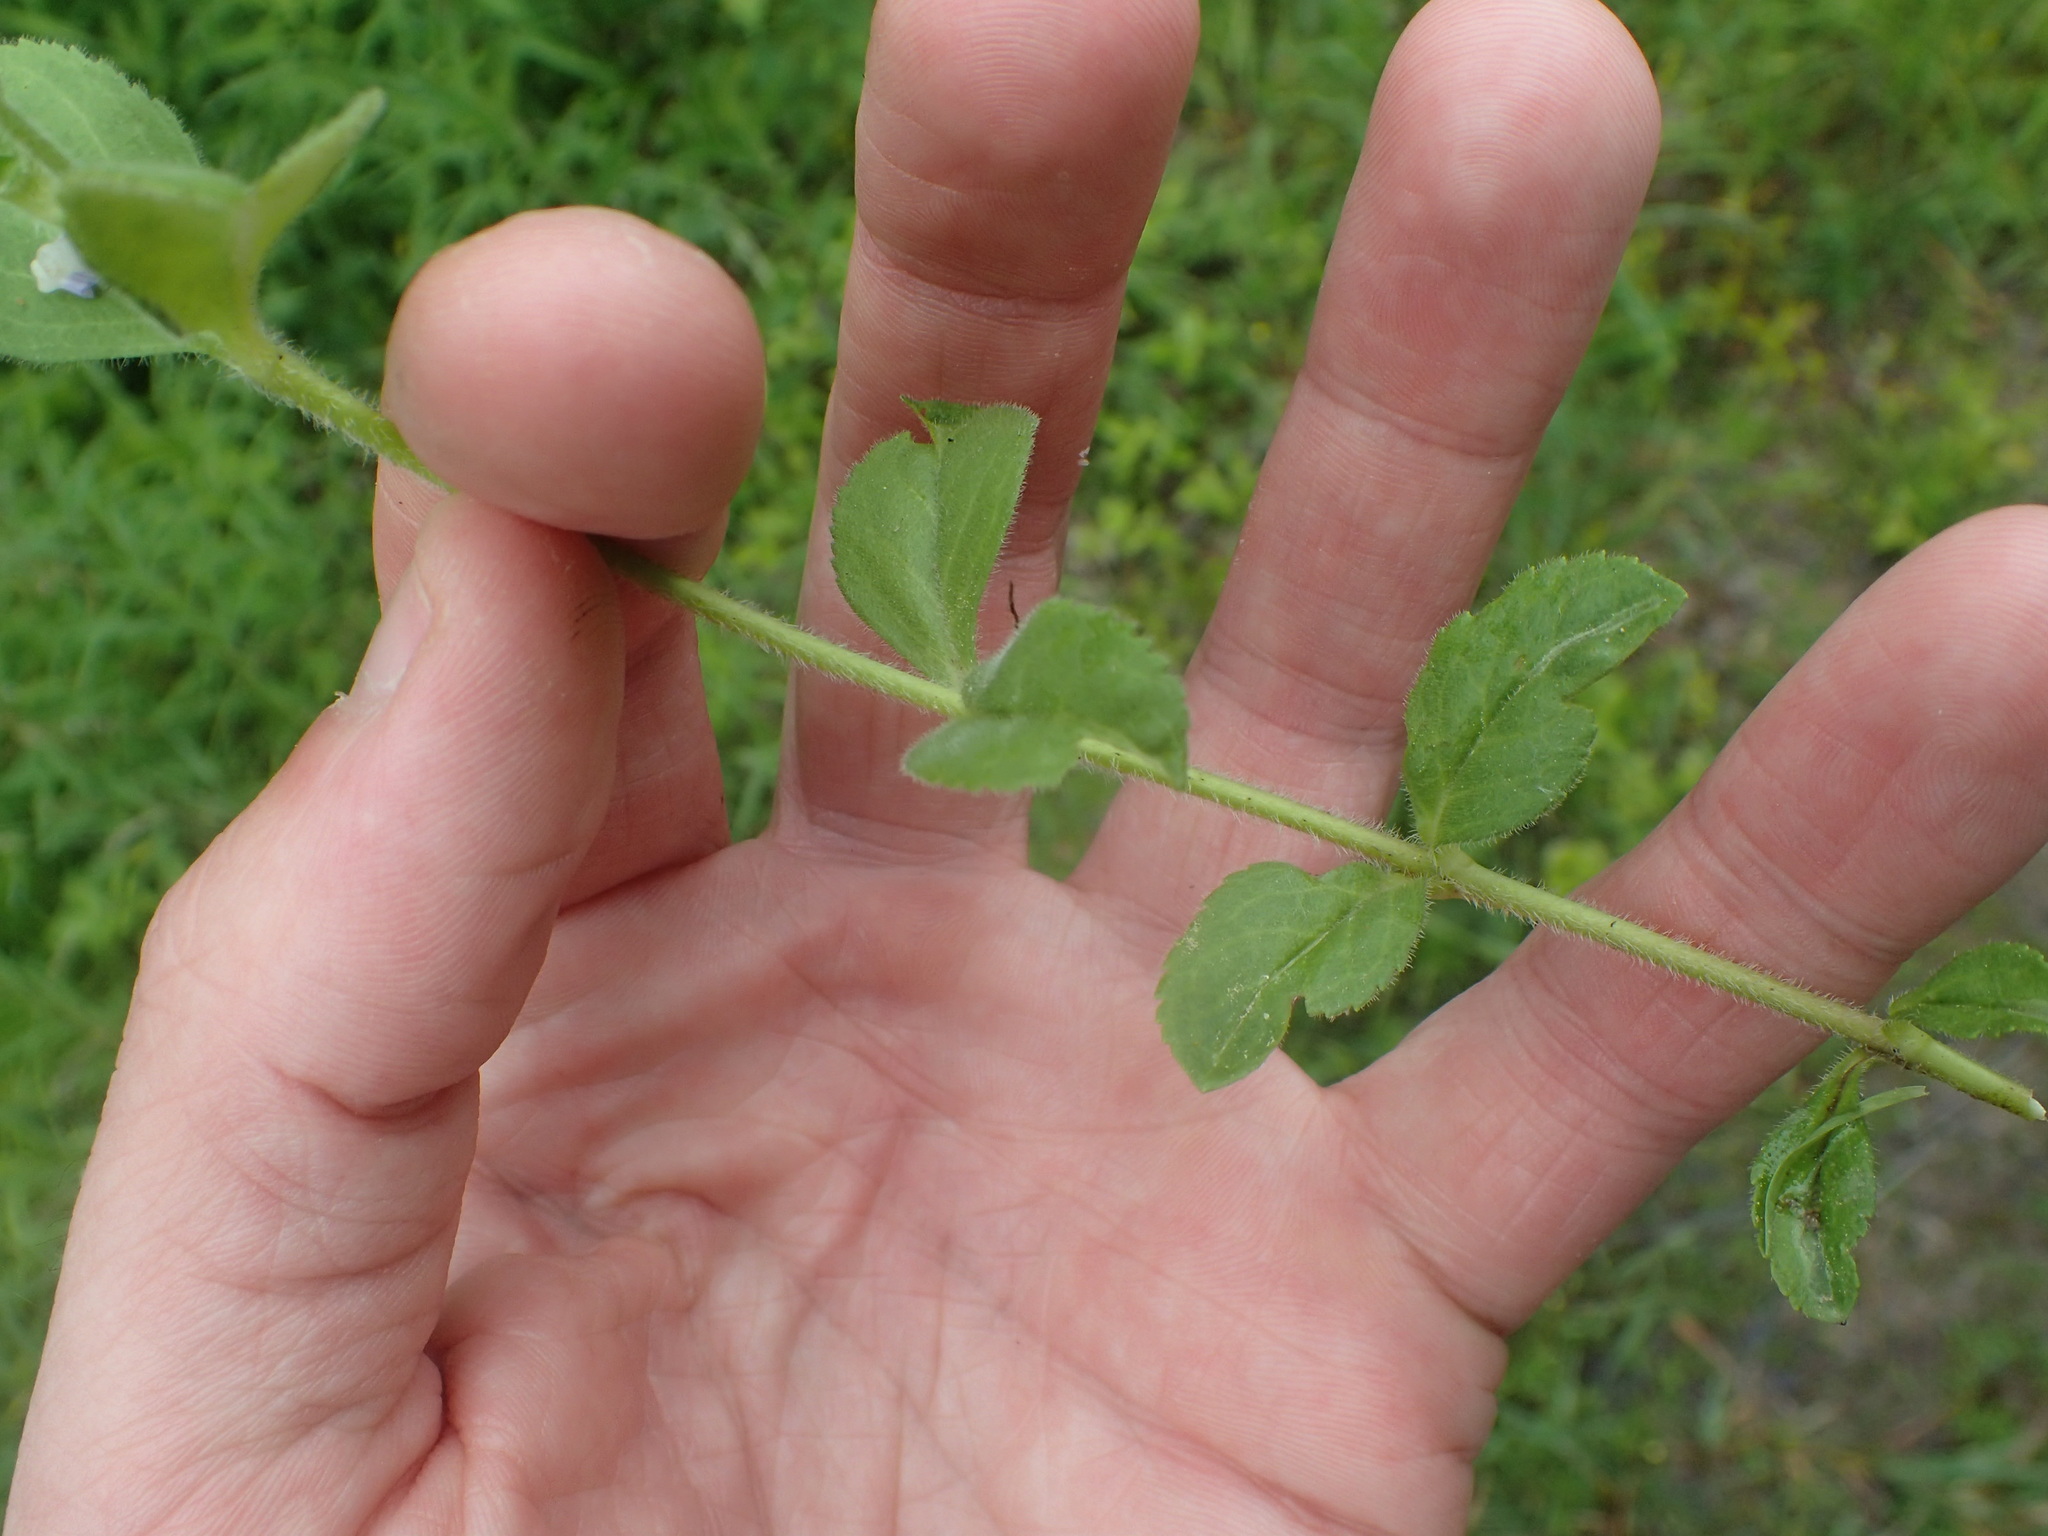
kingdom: Plantae
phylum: Tracheophyta
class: Magnoliopsida
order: Lamiales
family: Plantaginaceae
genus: Veronica
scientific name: Veronica officinalis
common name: Common speedwell
